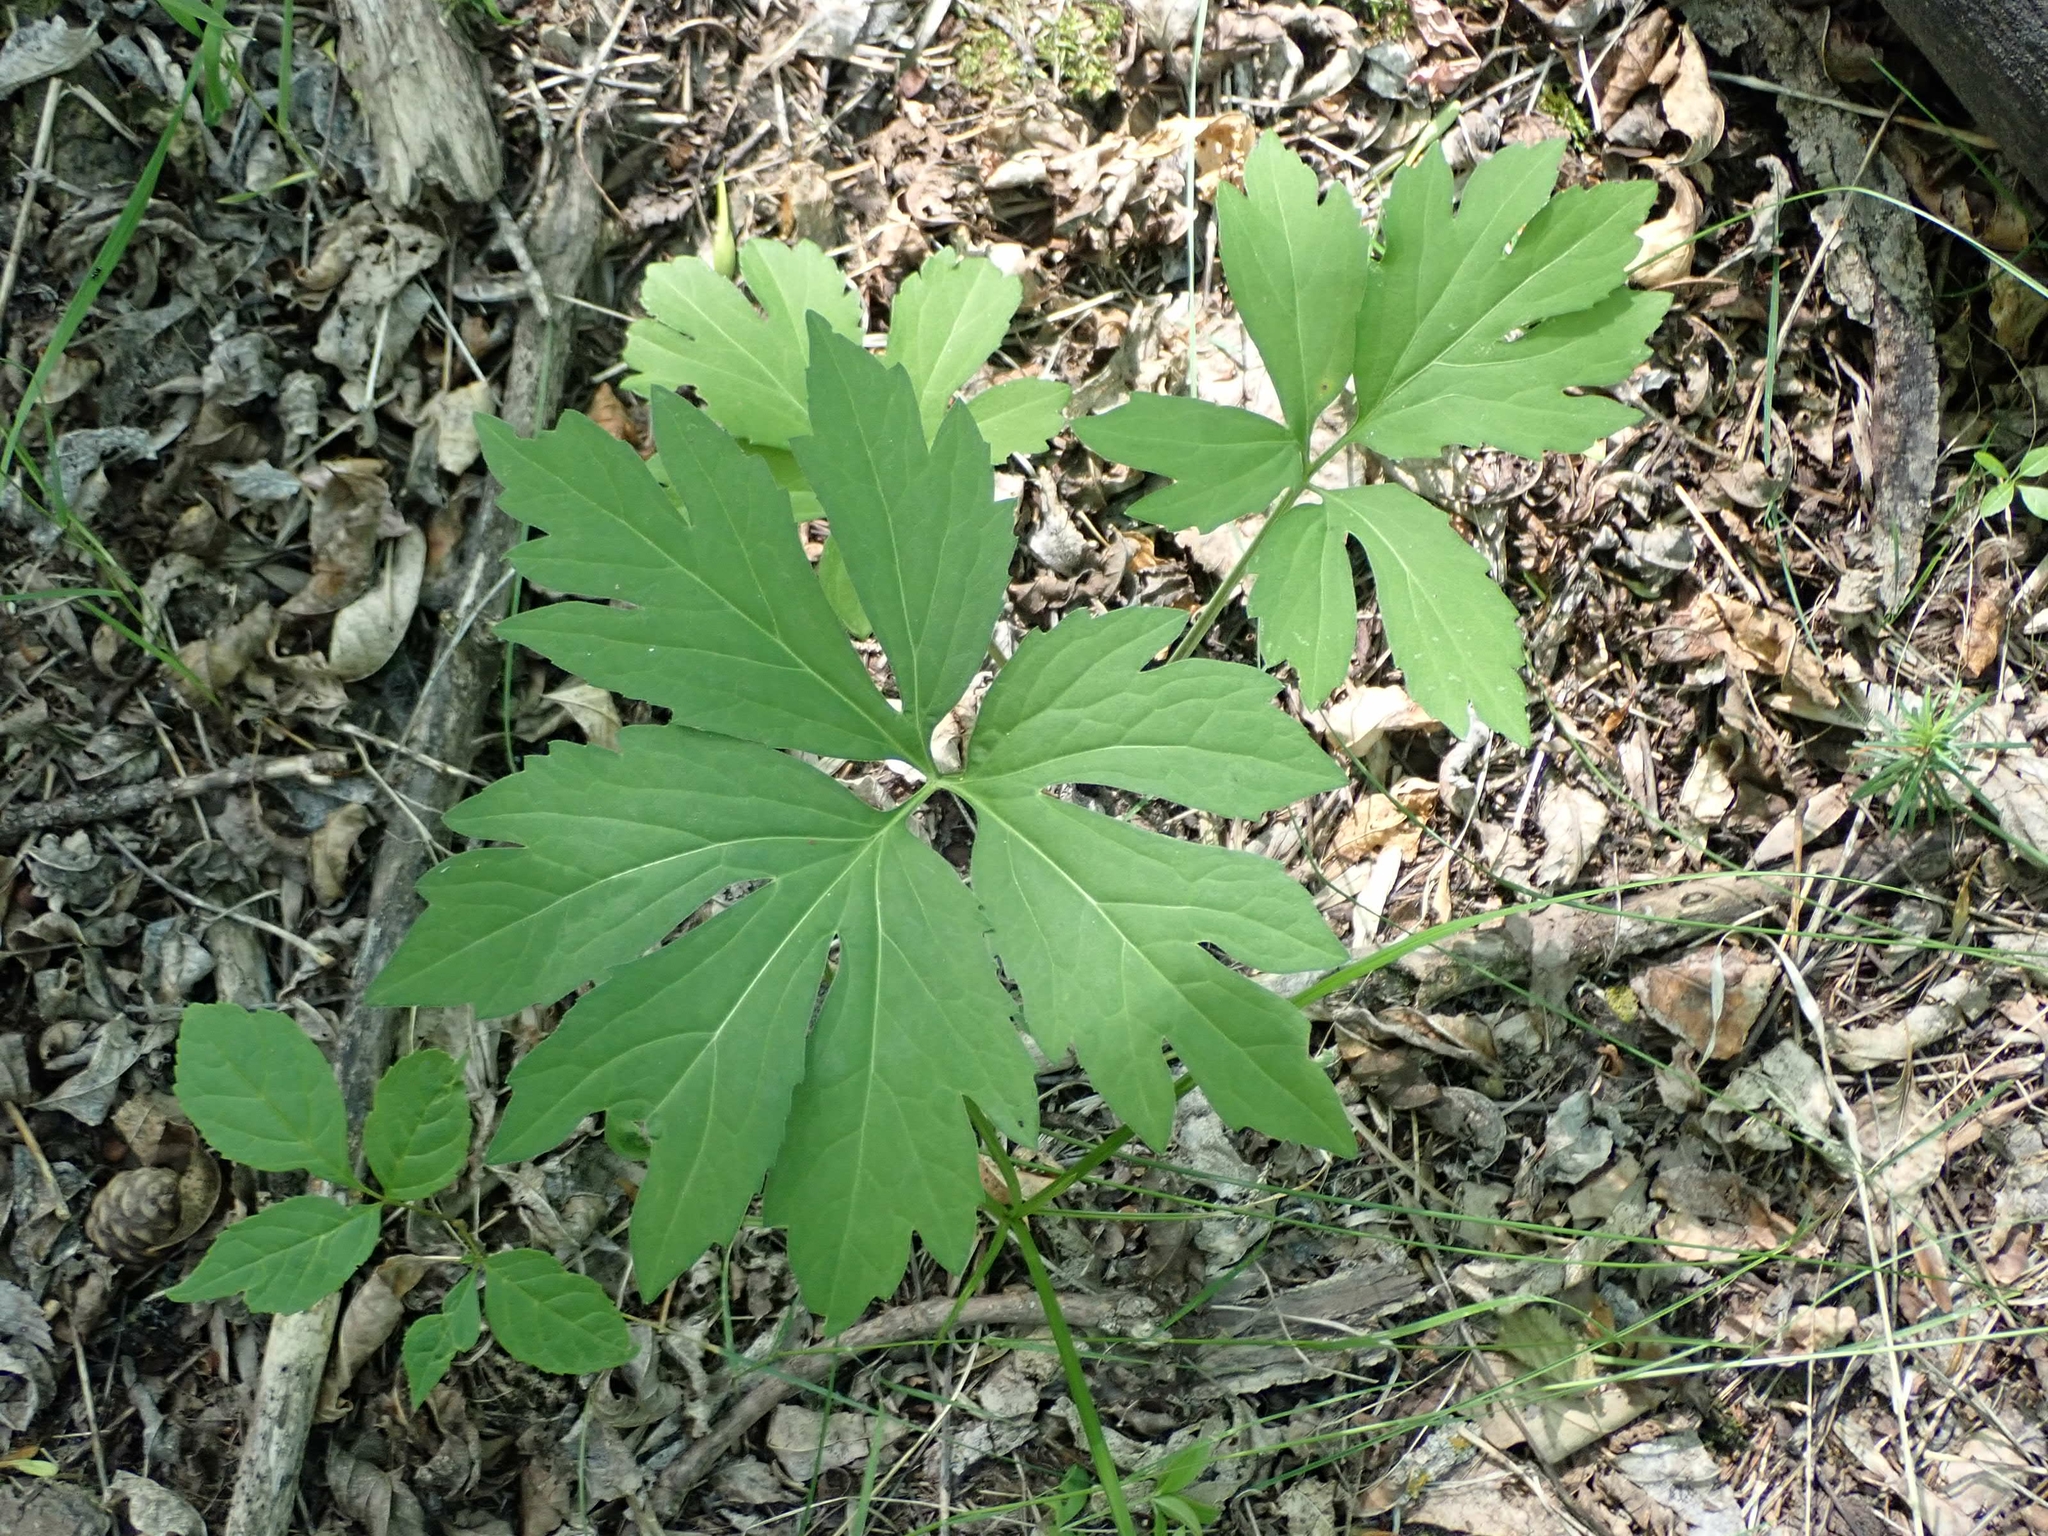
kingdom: Plantae
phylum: Tracheophyta
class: Magnoliopsida
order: Asterales
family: Asteraceae
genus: Rudbeckia
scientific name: Rudbeckia laciniata
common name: Coneflower
